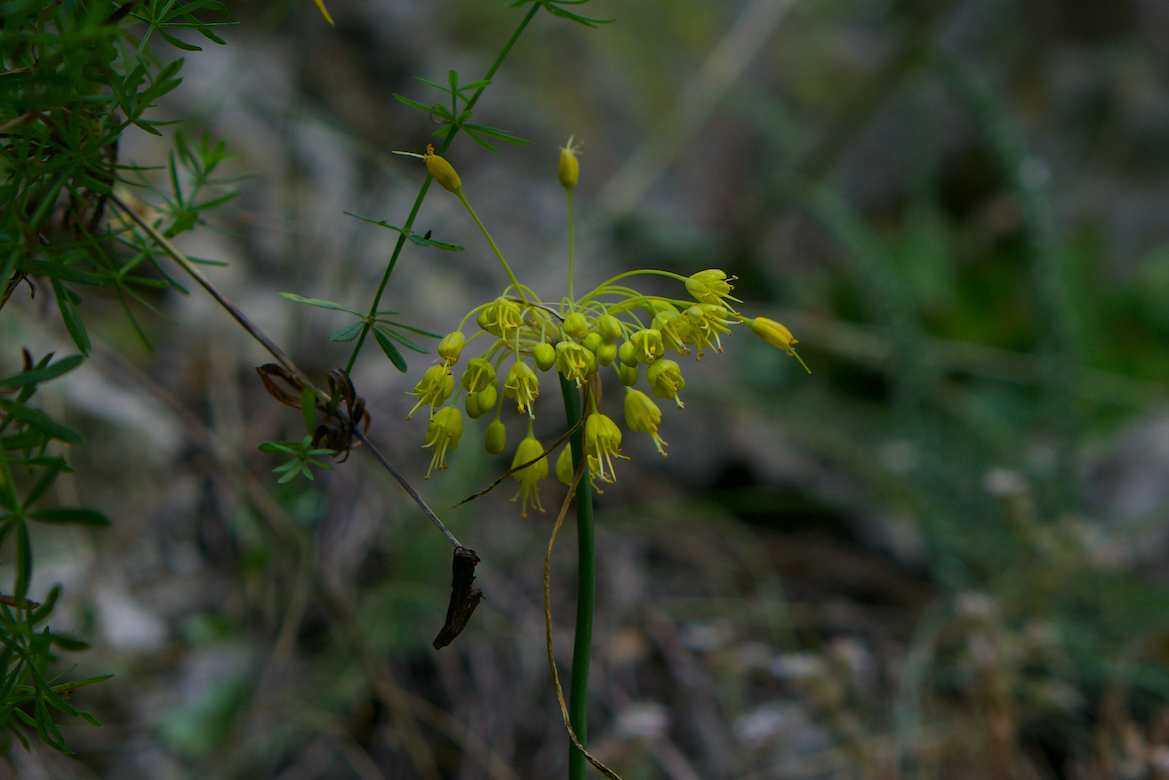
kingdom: Plantae
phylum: Tracheophyta
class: Liliopsida
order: Asparagales
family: Amaryllidaceae
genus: Allium
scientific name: Allium flavum
